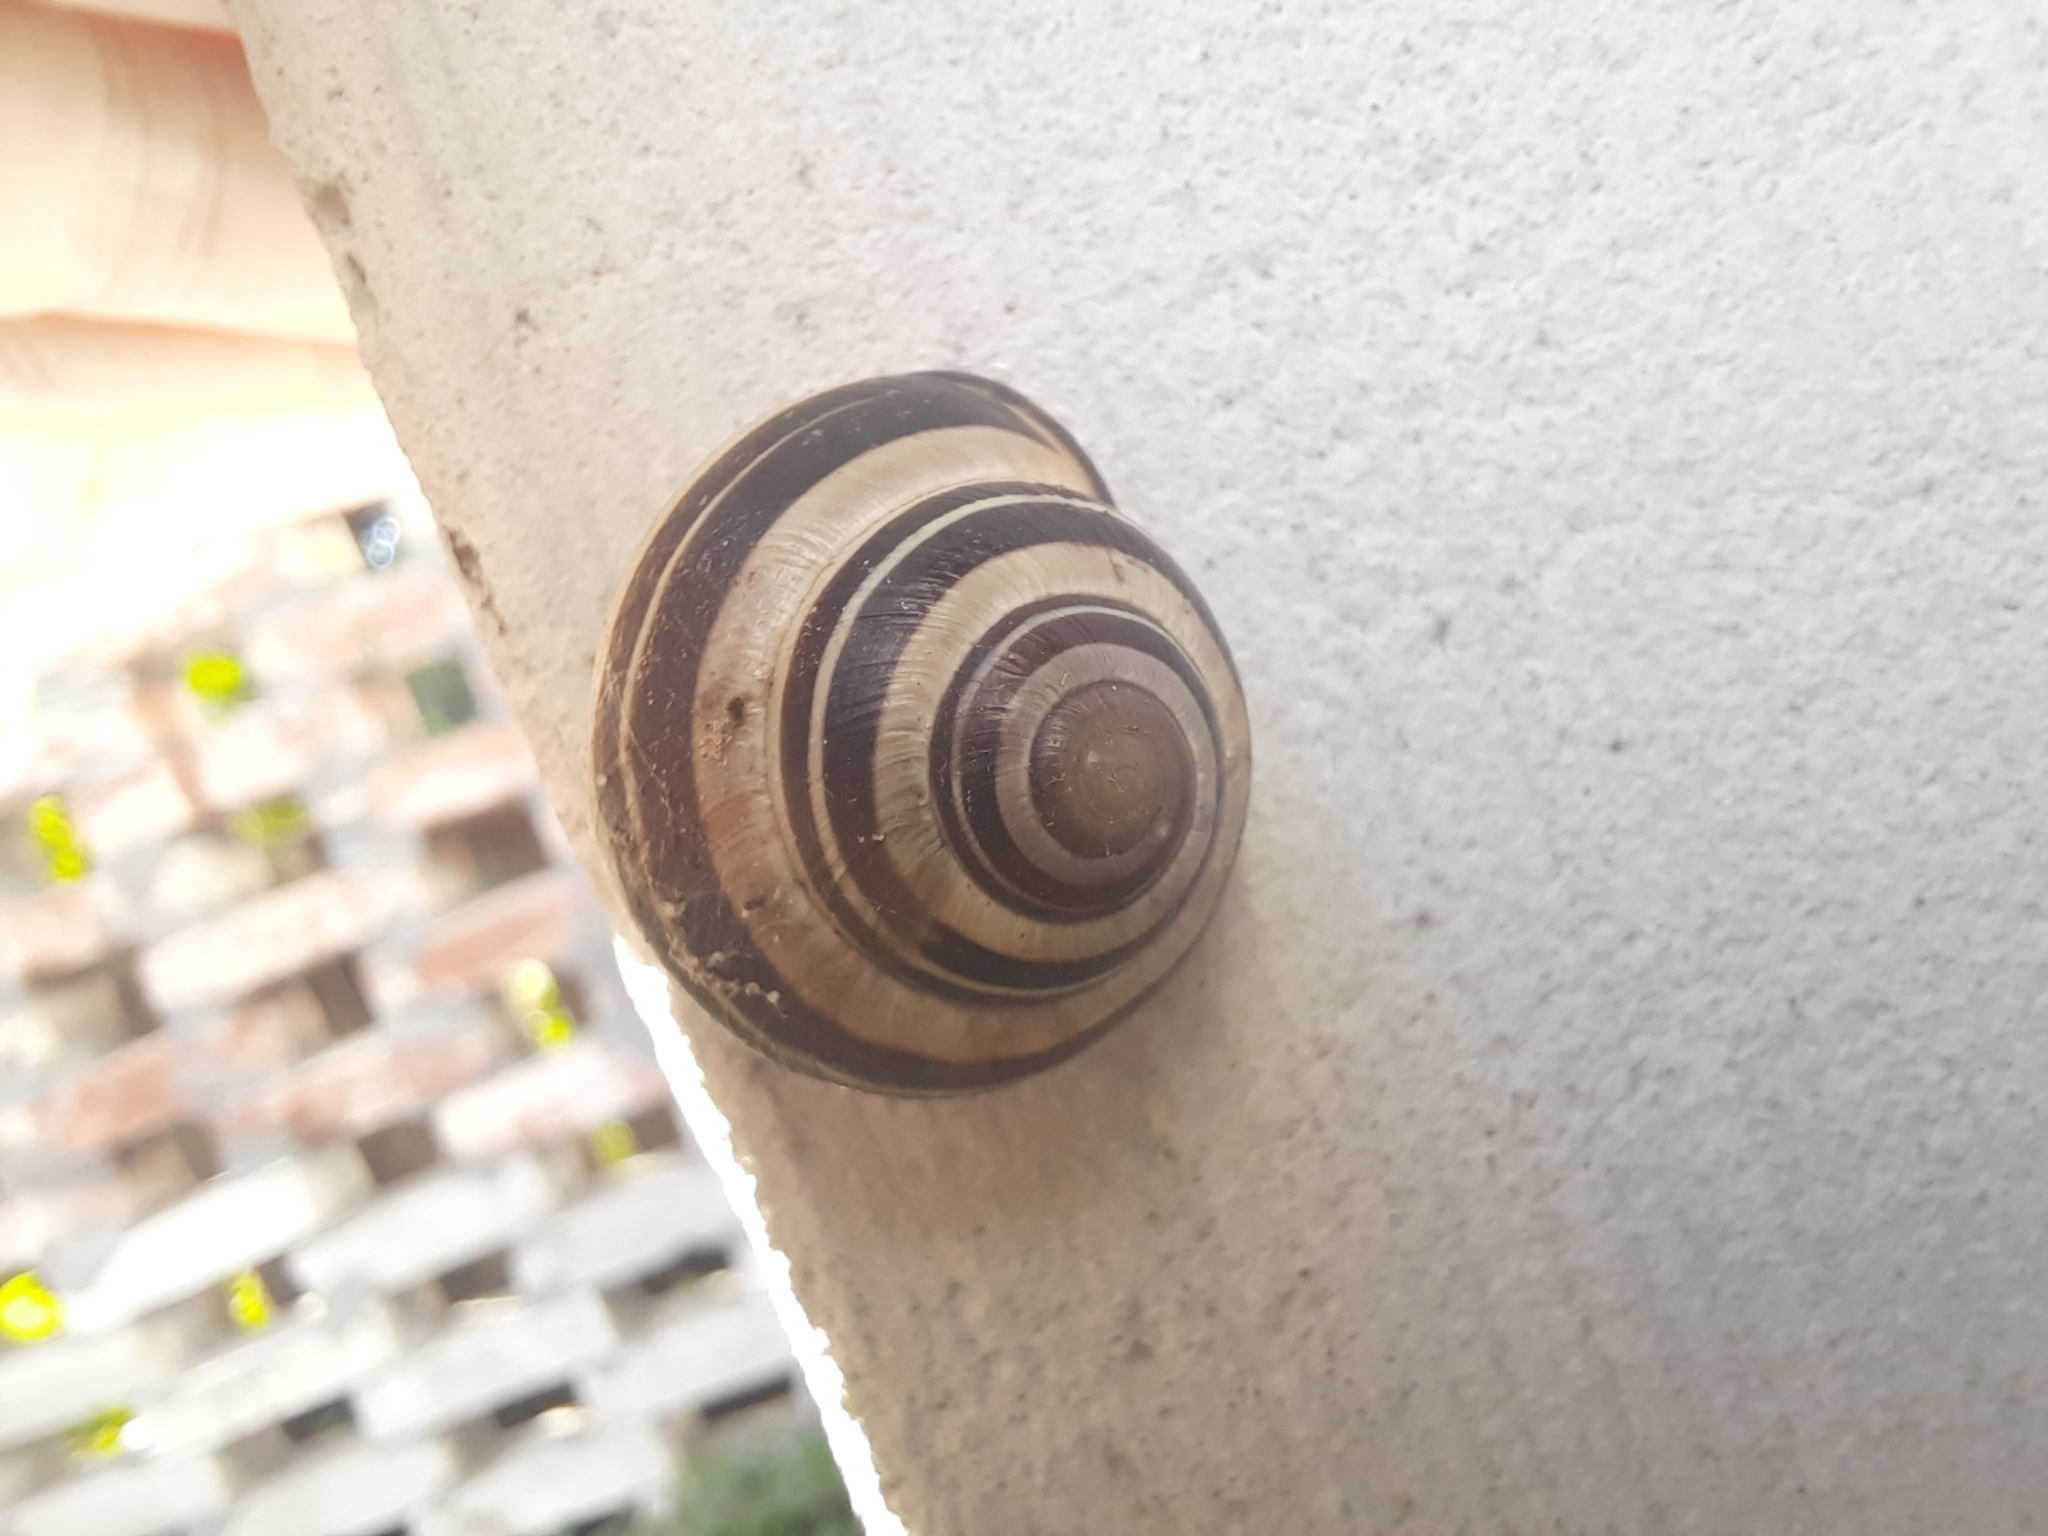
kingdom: Animalia
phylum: Mollusca
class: Gastropoda
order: Stylommatophora
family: Helicidae
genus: Cepaea
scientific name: Cepaea nemoralis
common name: Grovesnail
